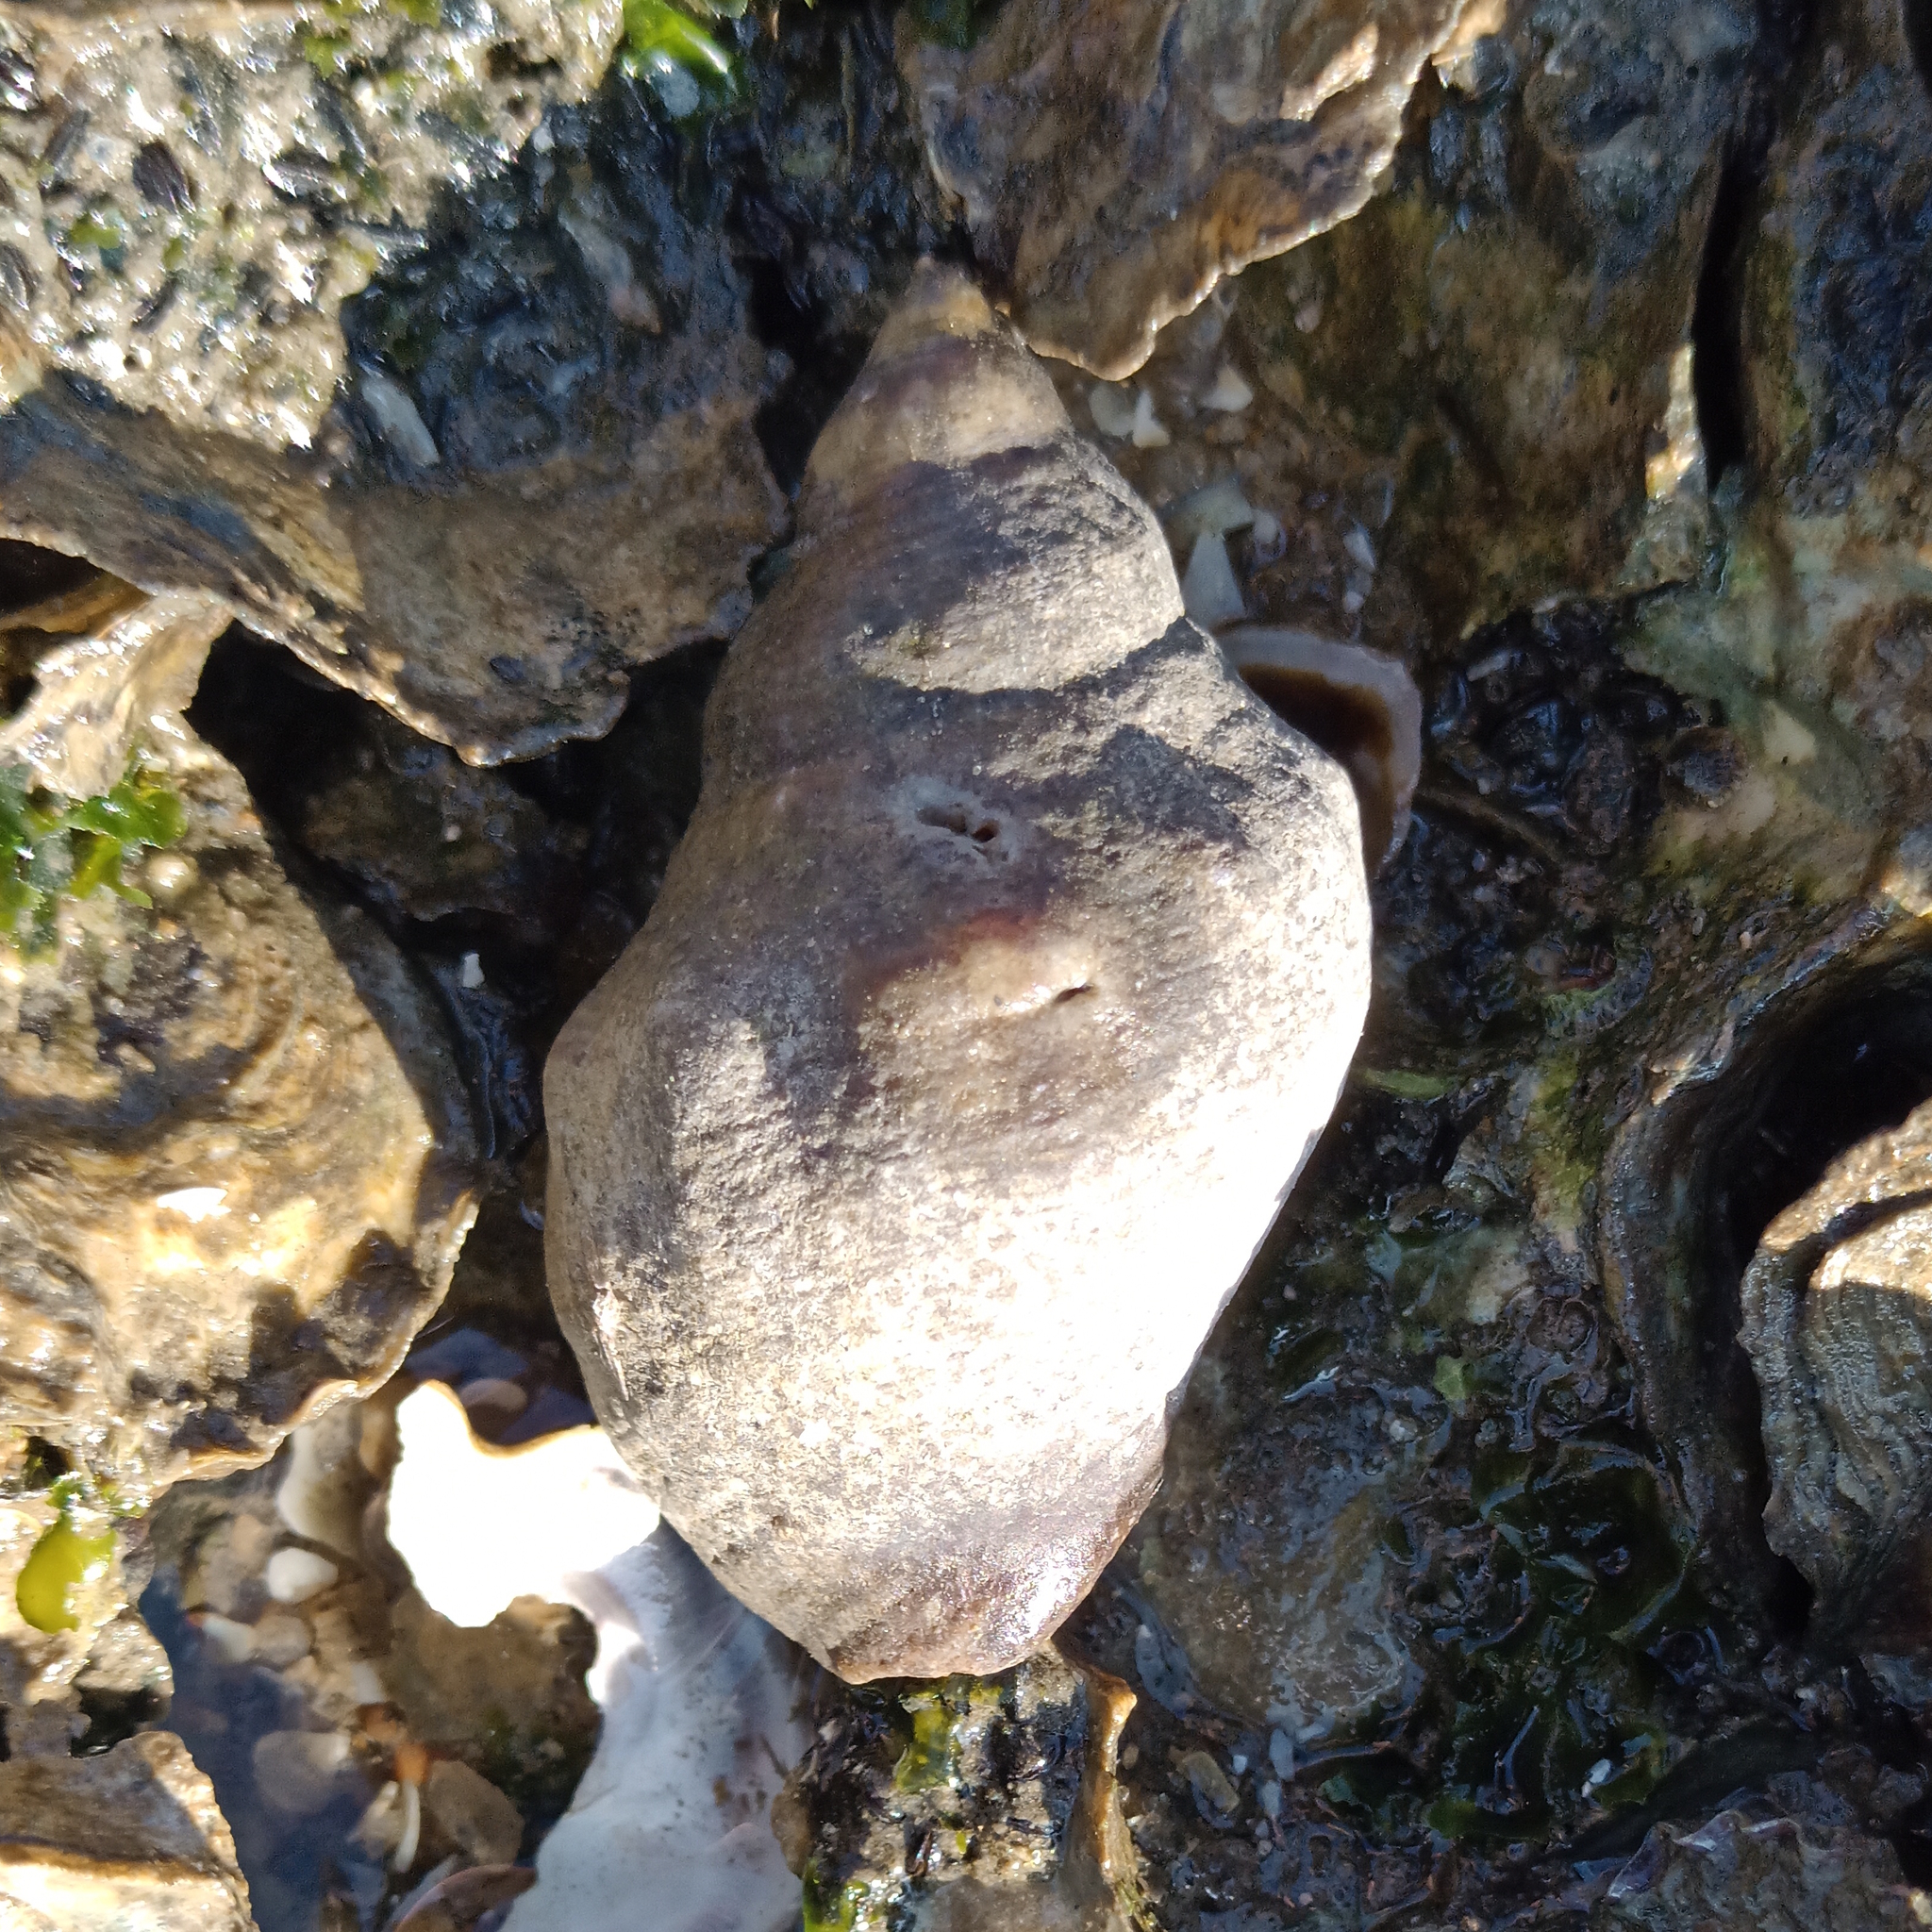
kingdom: Animalia
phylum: Mollusca
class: Gastropoda
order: Neogastropoda
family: Muricidae
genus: Stramonita
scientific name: Stramonita brasiliensis
